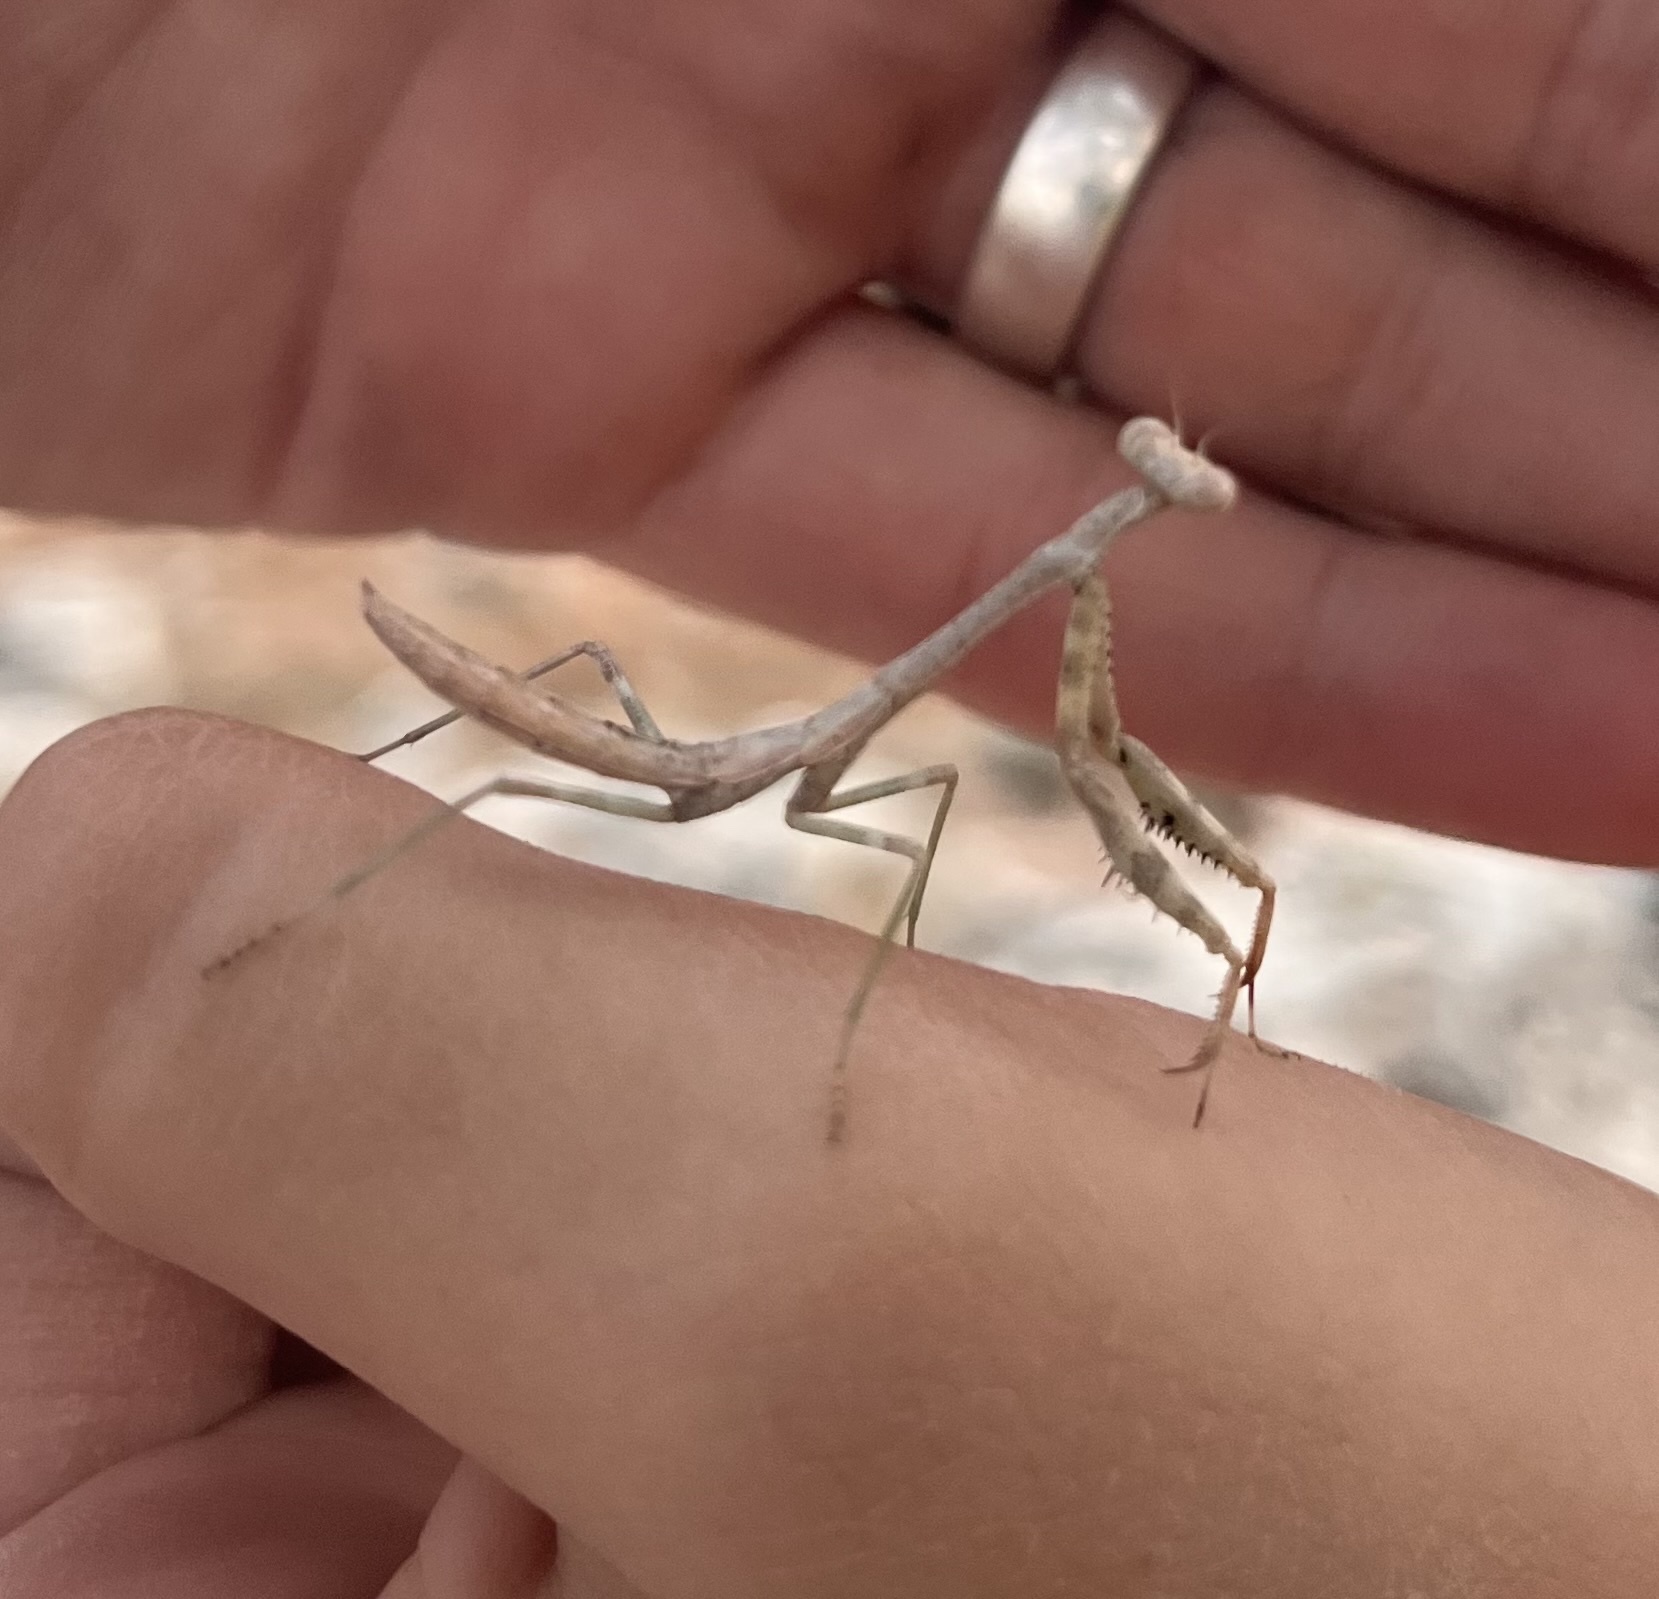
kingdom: Animalia
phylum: Arthropoda
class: Insecta
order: Mantodea
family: Mantidae
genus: Stagmomantis
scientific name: Stagmomantis carolina
